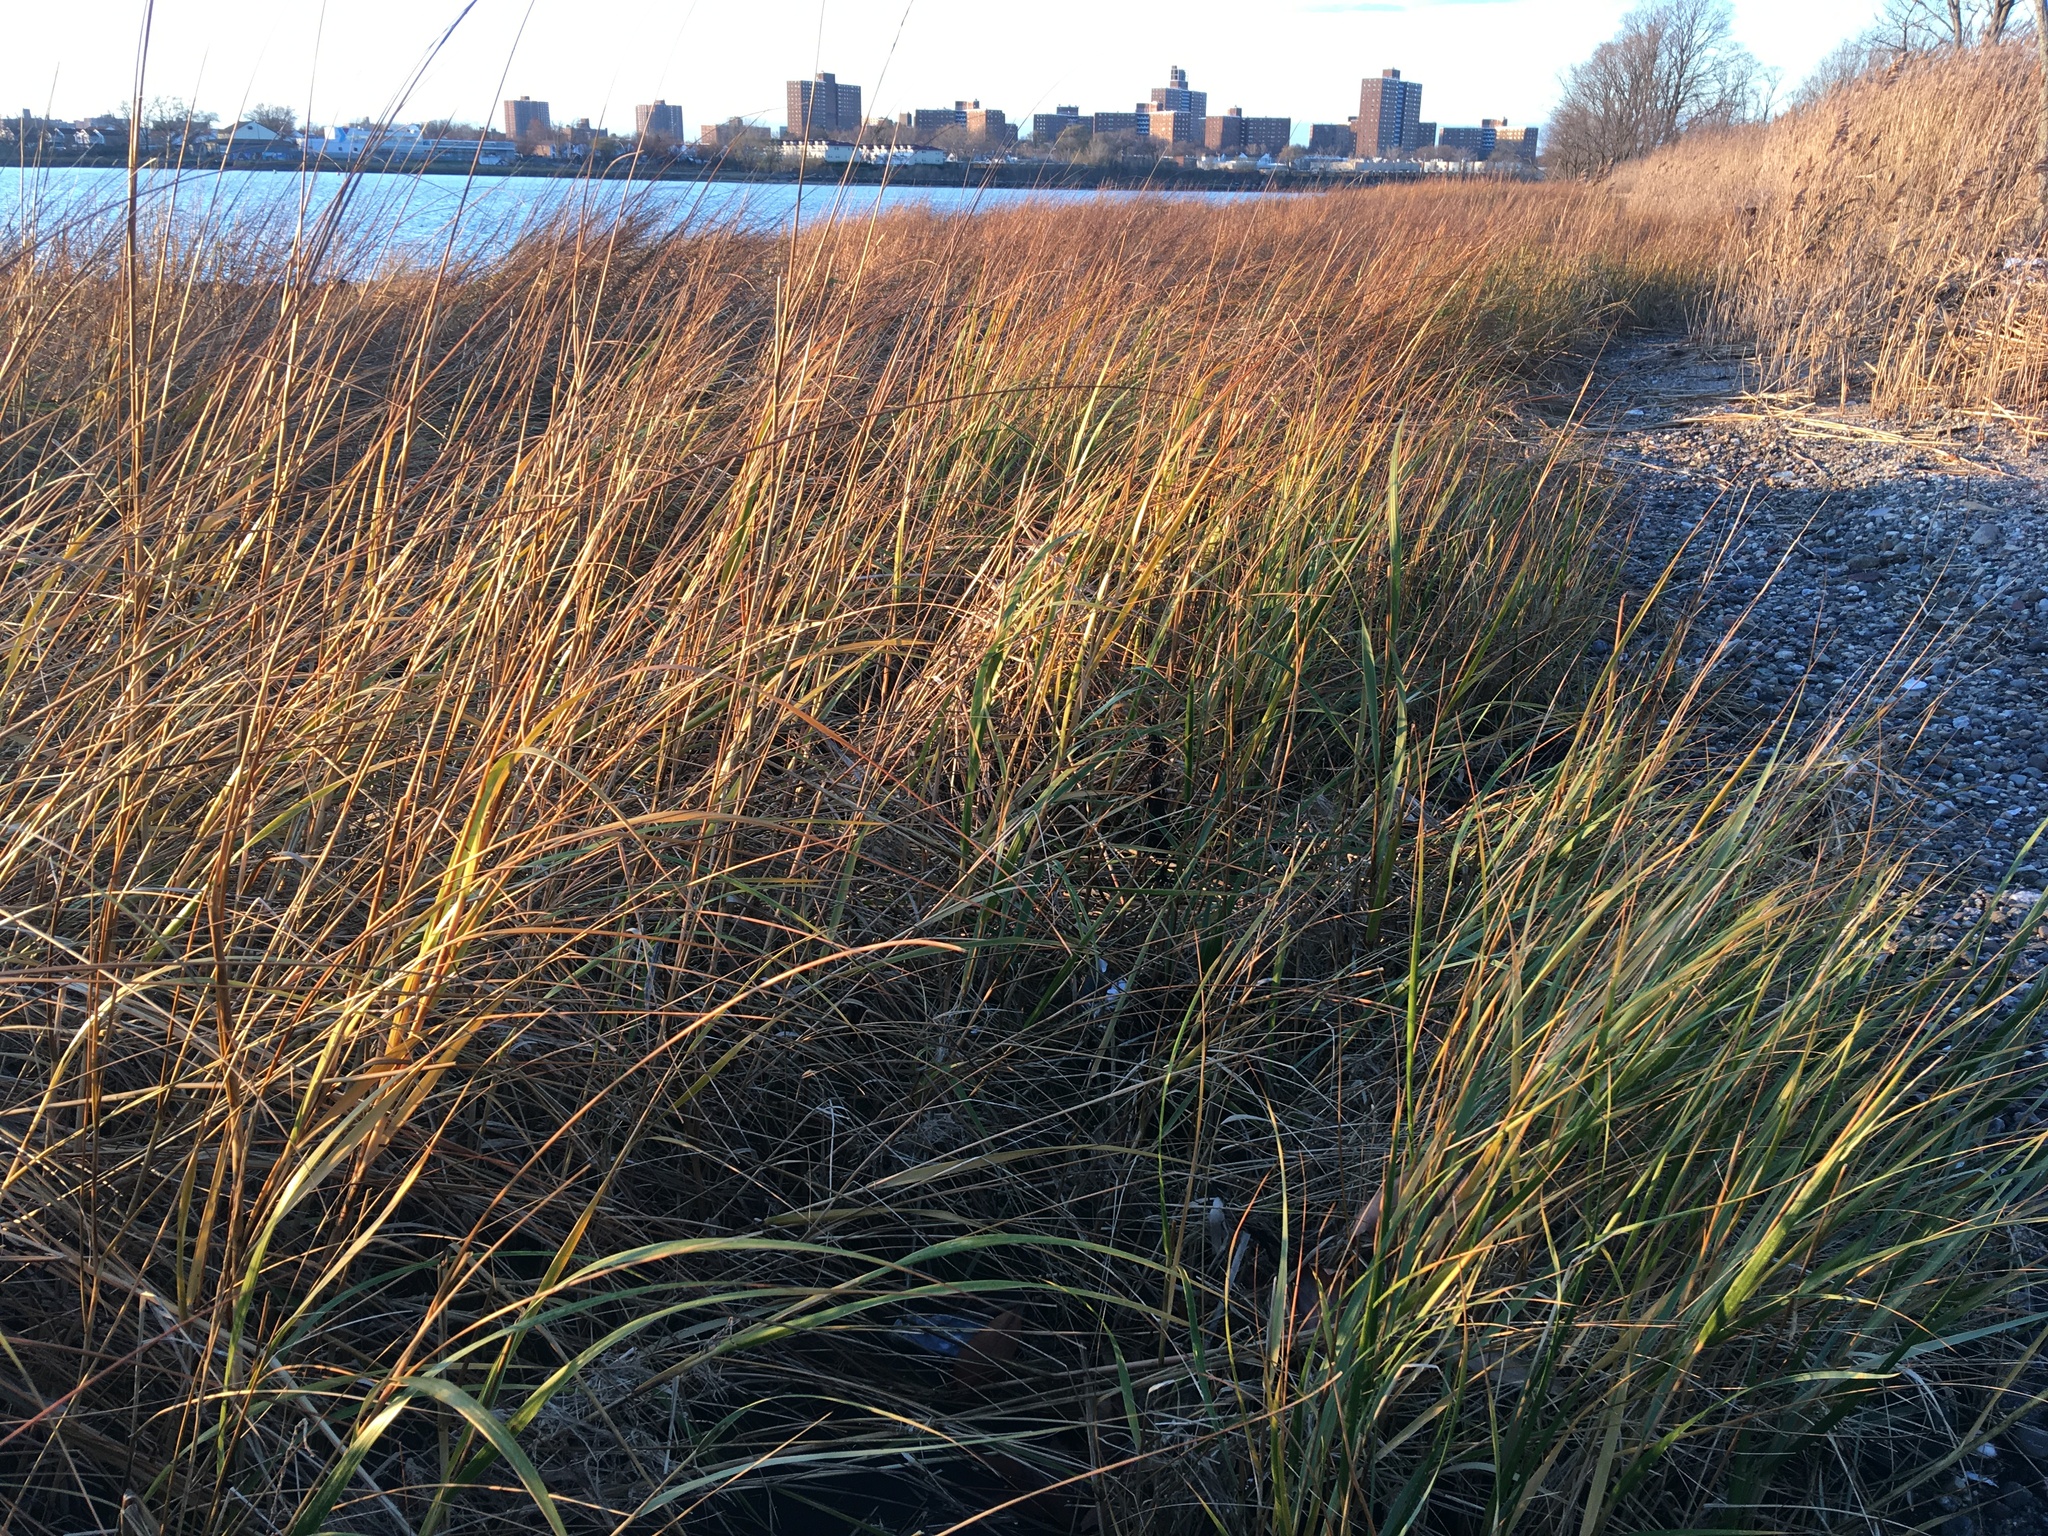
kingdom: Plantae
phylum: Tracheophyta
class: Liliopsida
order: Poales
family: Poaceae
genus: Sporobolus
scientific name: Sporobolus alterniflorus
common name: Atlantic cordgrass
